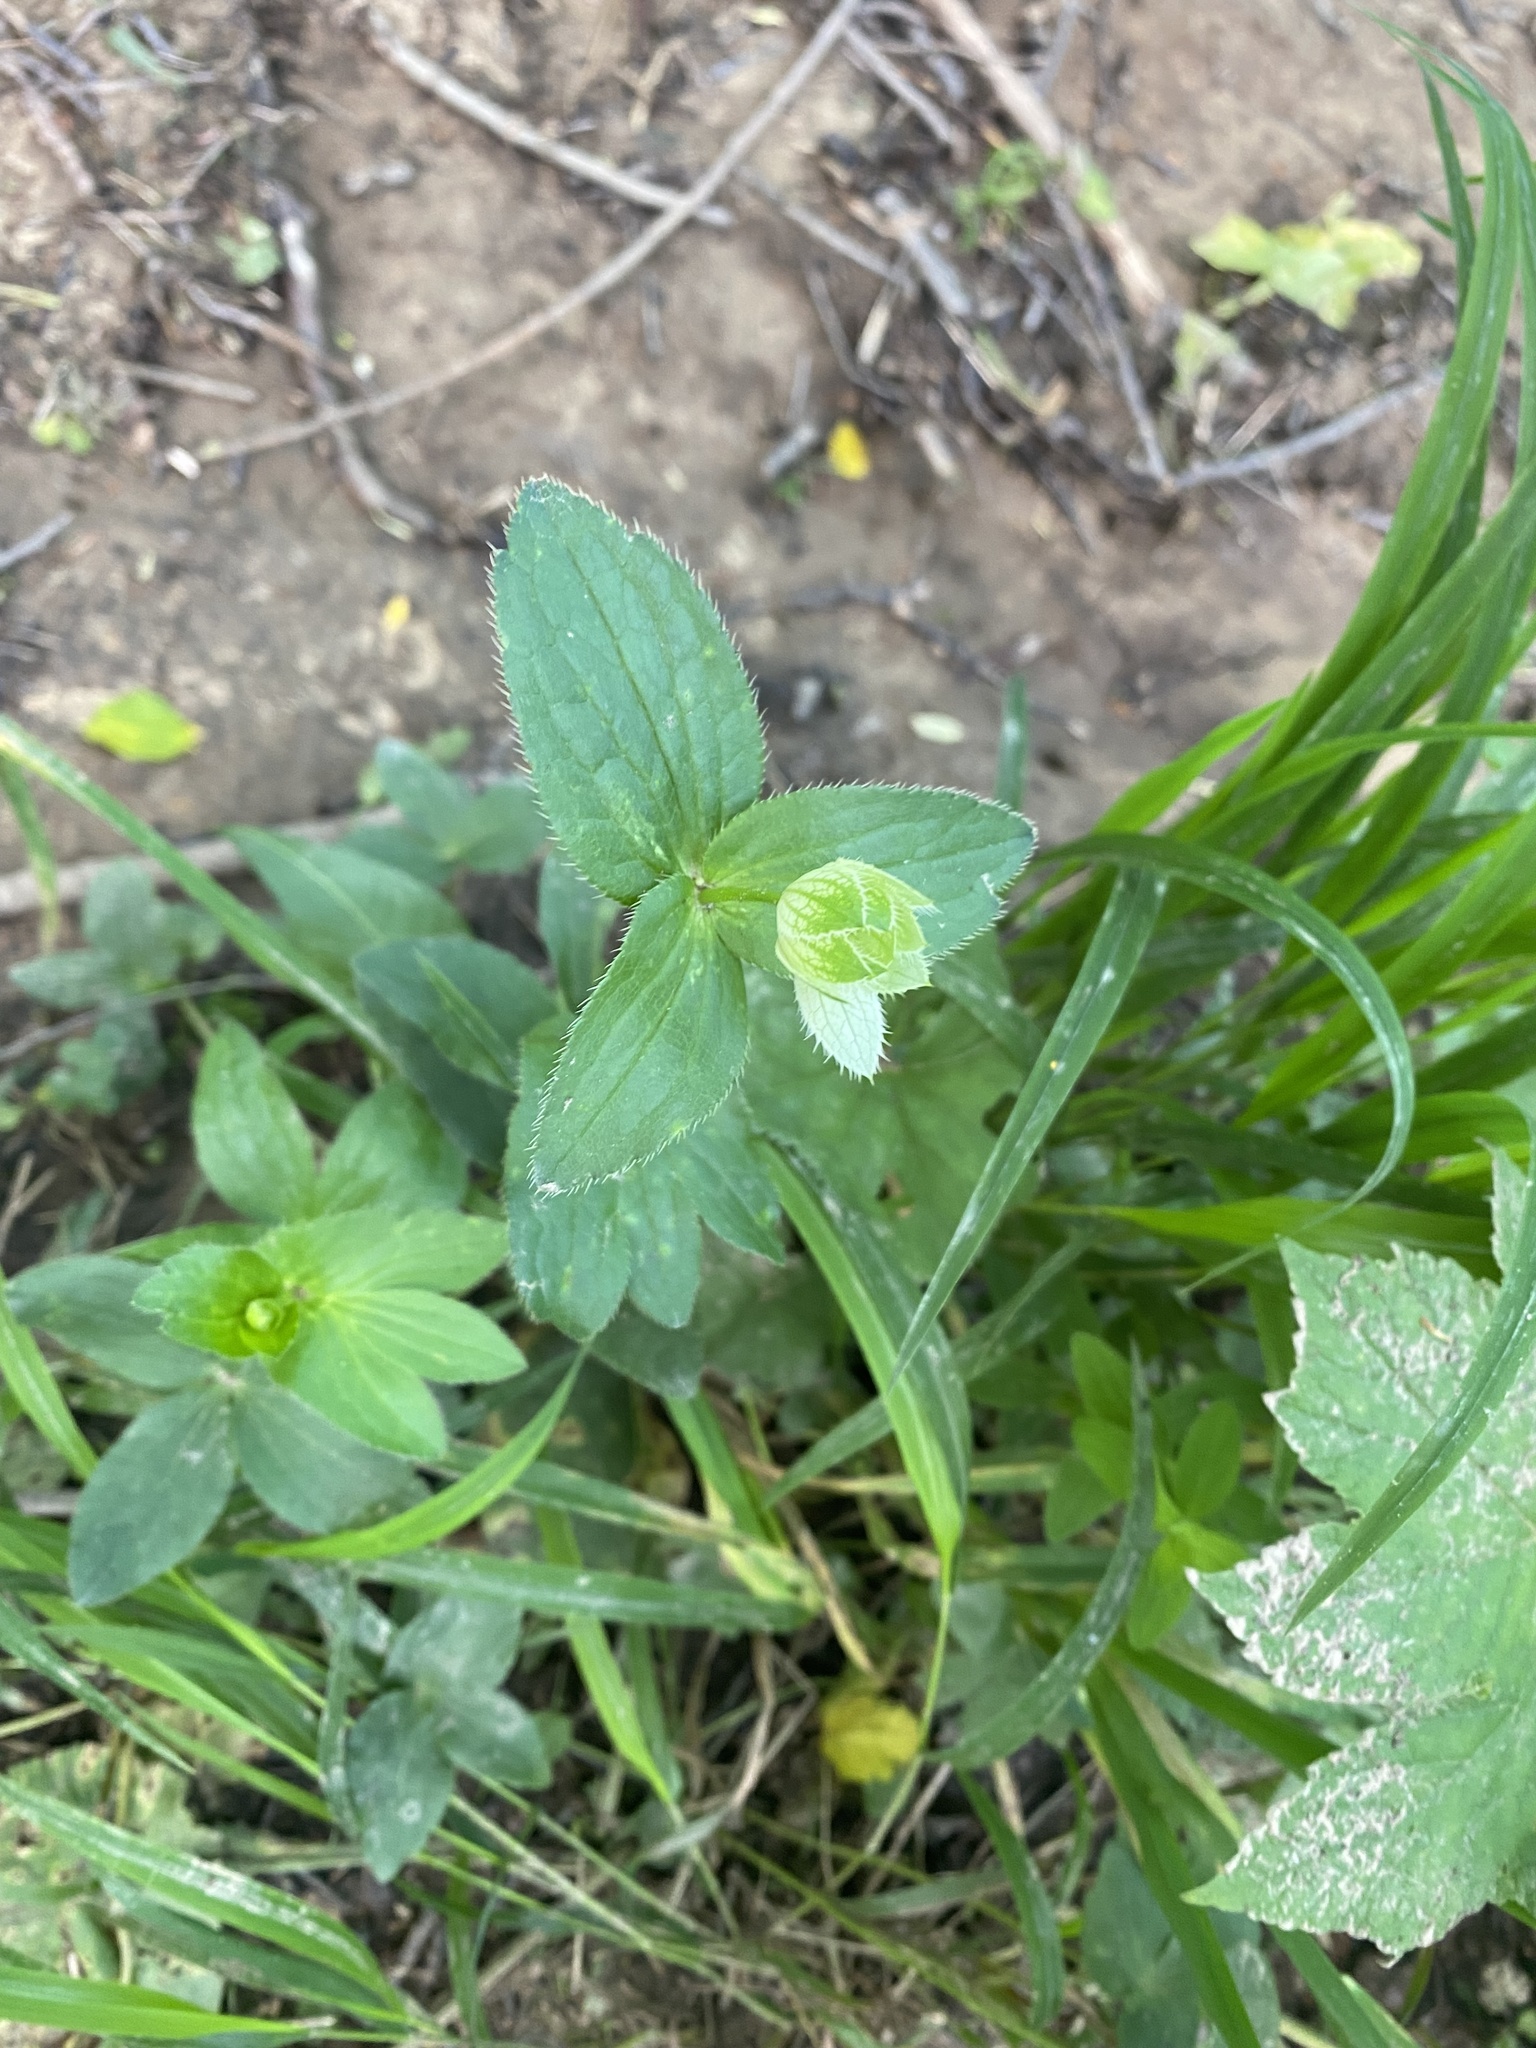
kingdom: Plantae
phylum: Tracheophyta
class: Magnoliopsida
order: Apiales
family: Apiaceae
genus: Astrantia
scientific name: Astrantia maxima
